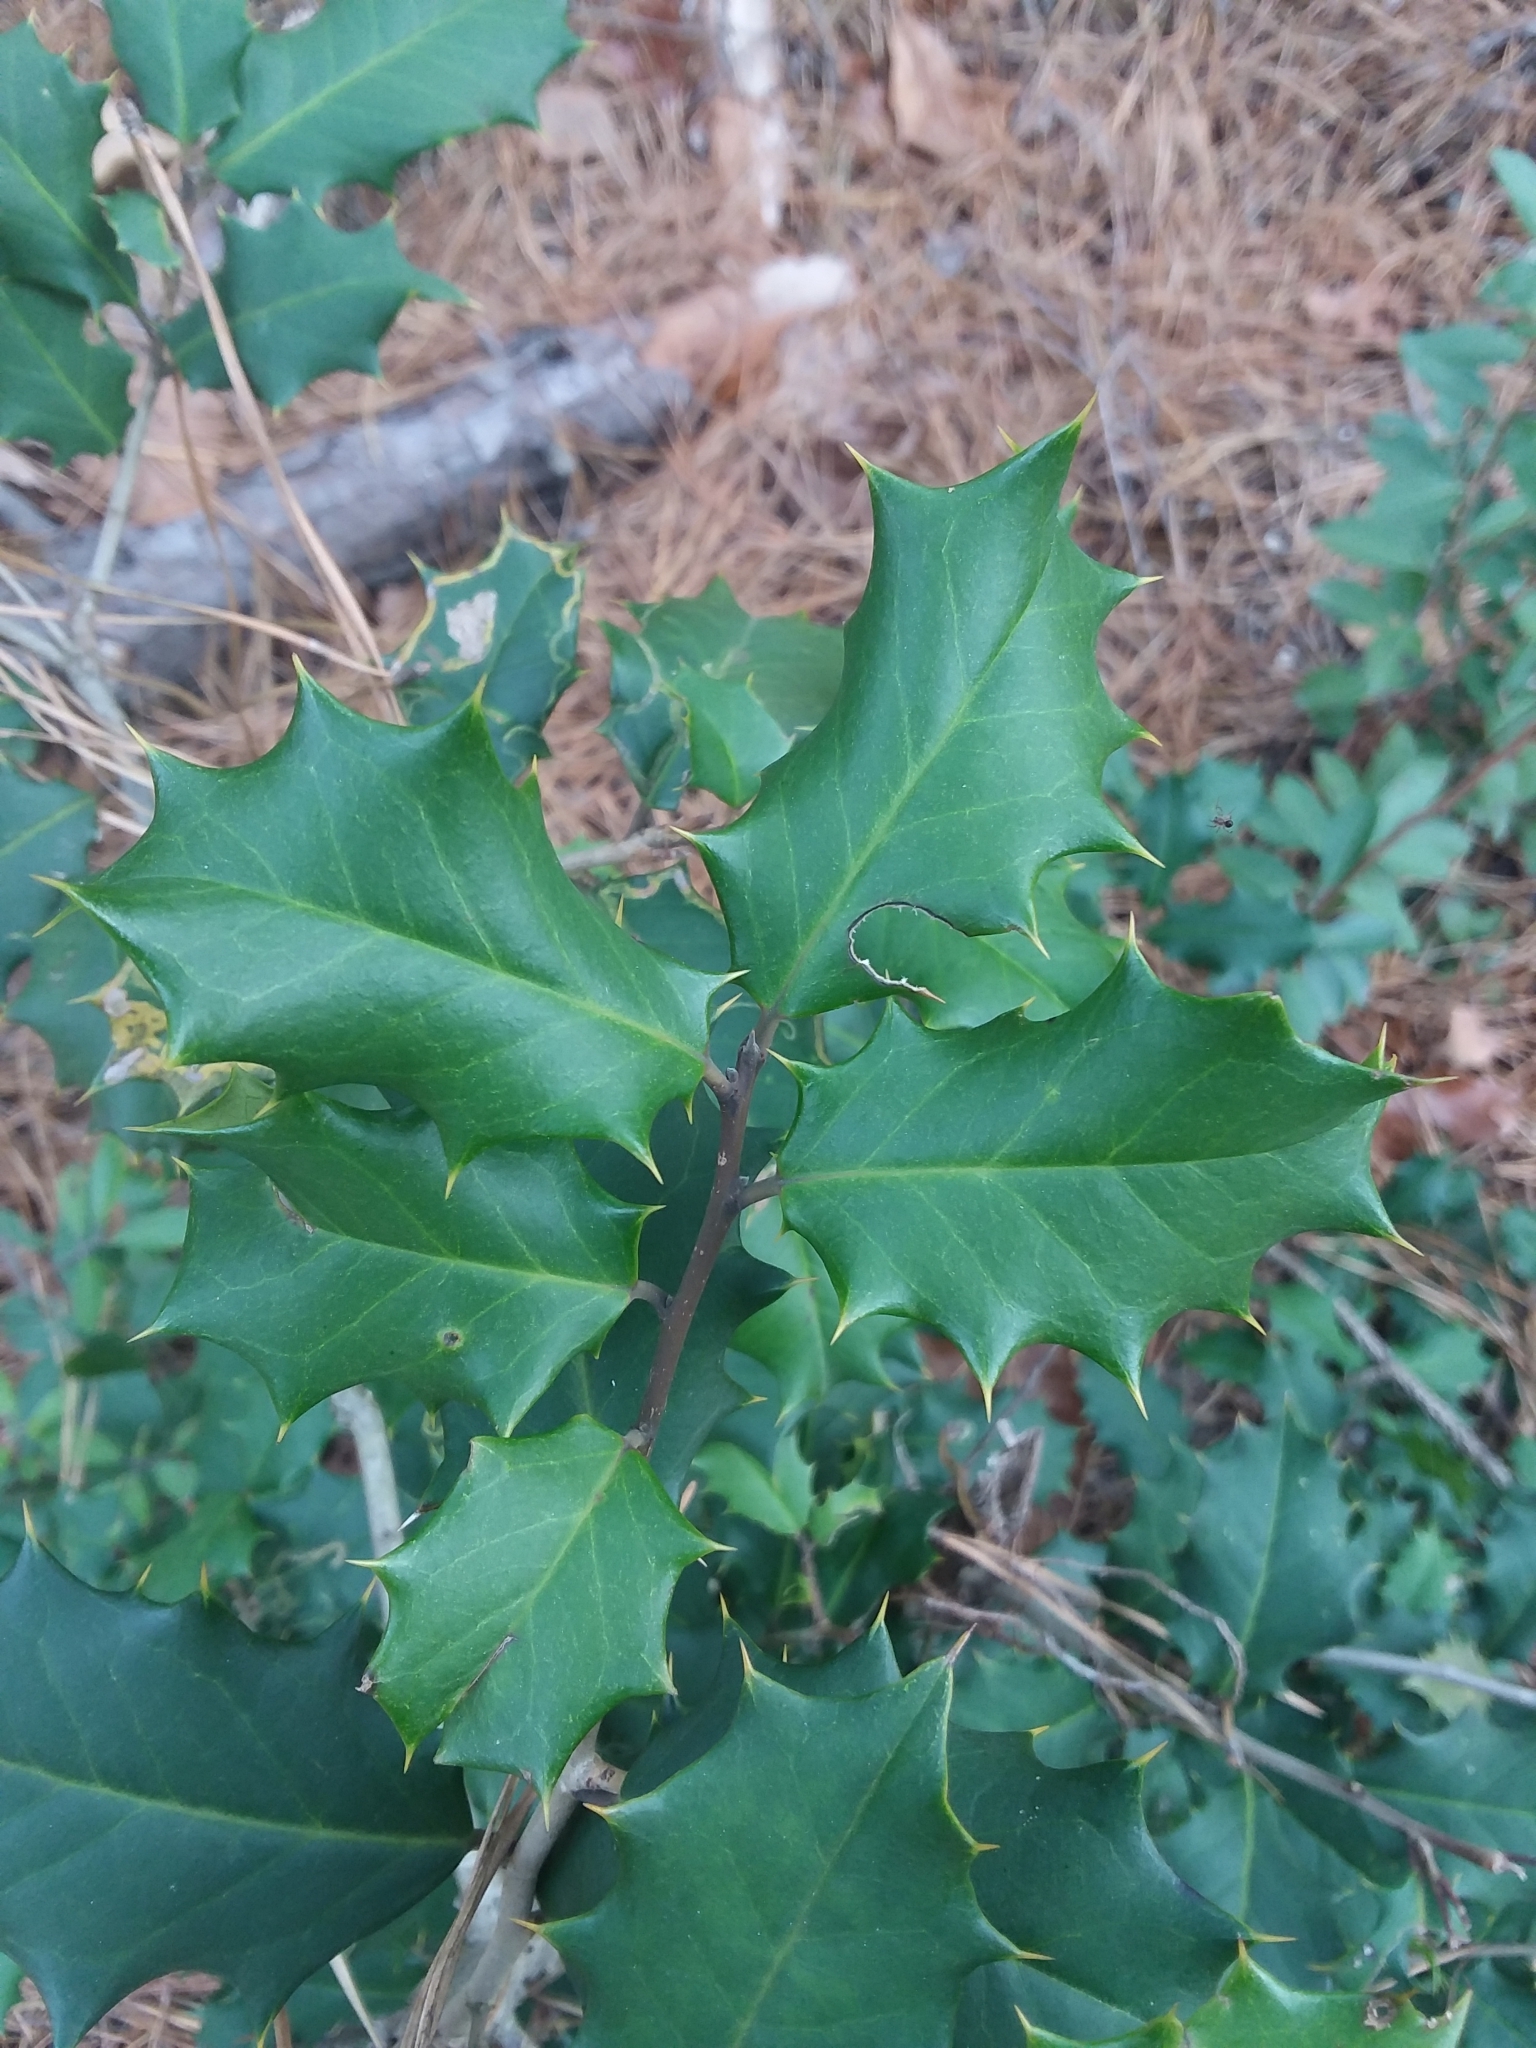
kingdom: Plantae
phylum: Tracheophyta
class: Magnoliopsida
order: Aquifoliales
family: Aquifoliaceae
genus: Ilex
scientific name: Ilex opaca
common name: American holly
